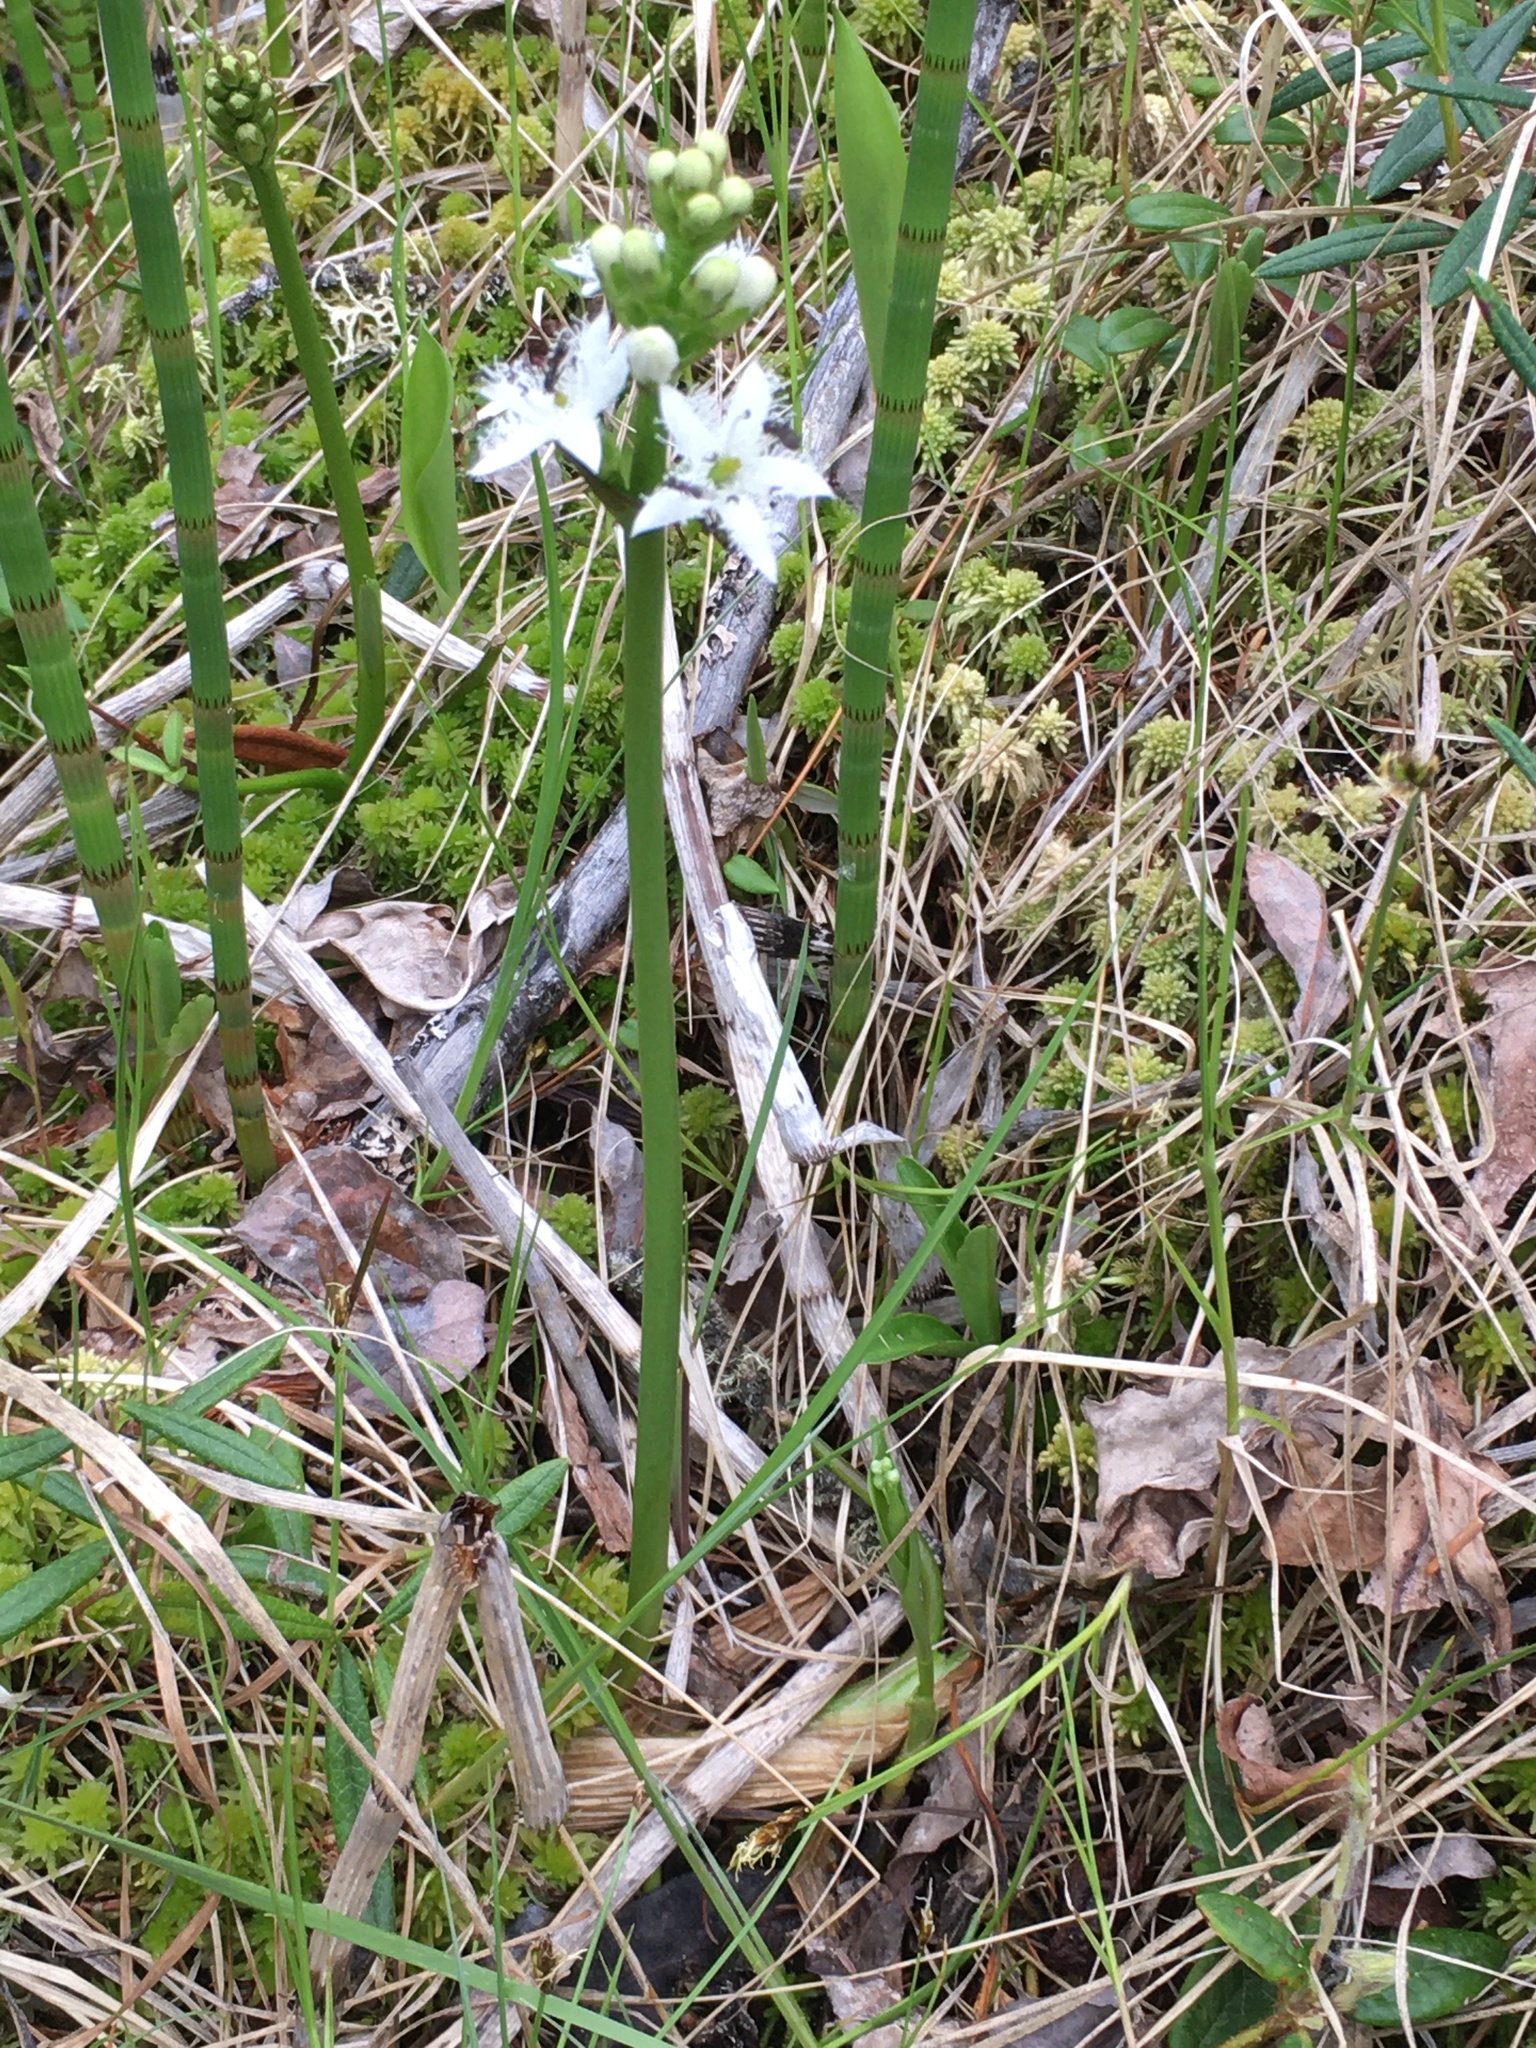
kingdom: Plantae
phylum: Tracheophyta
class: Magnoliopsida
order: Asterales
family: Menyanthaceae
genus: Menyanthes
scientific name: Menyanthes trifoliata
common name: Bogbean
